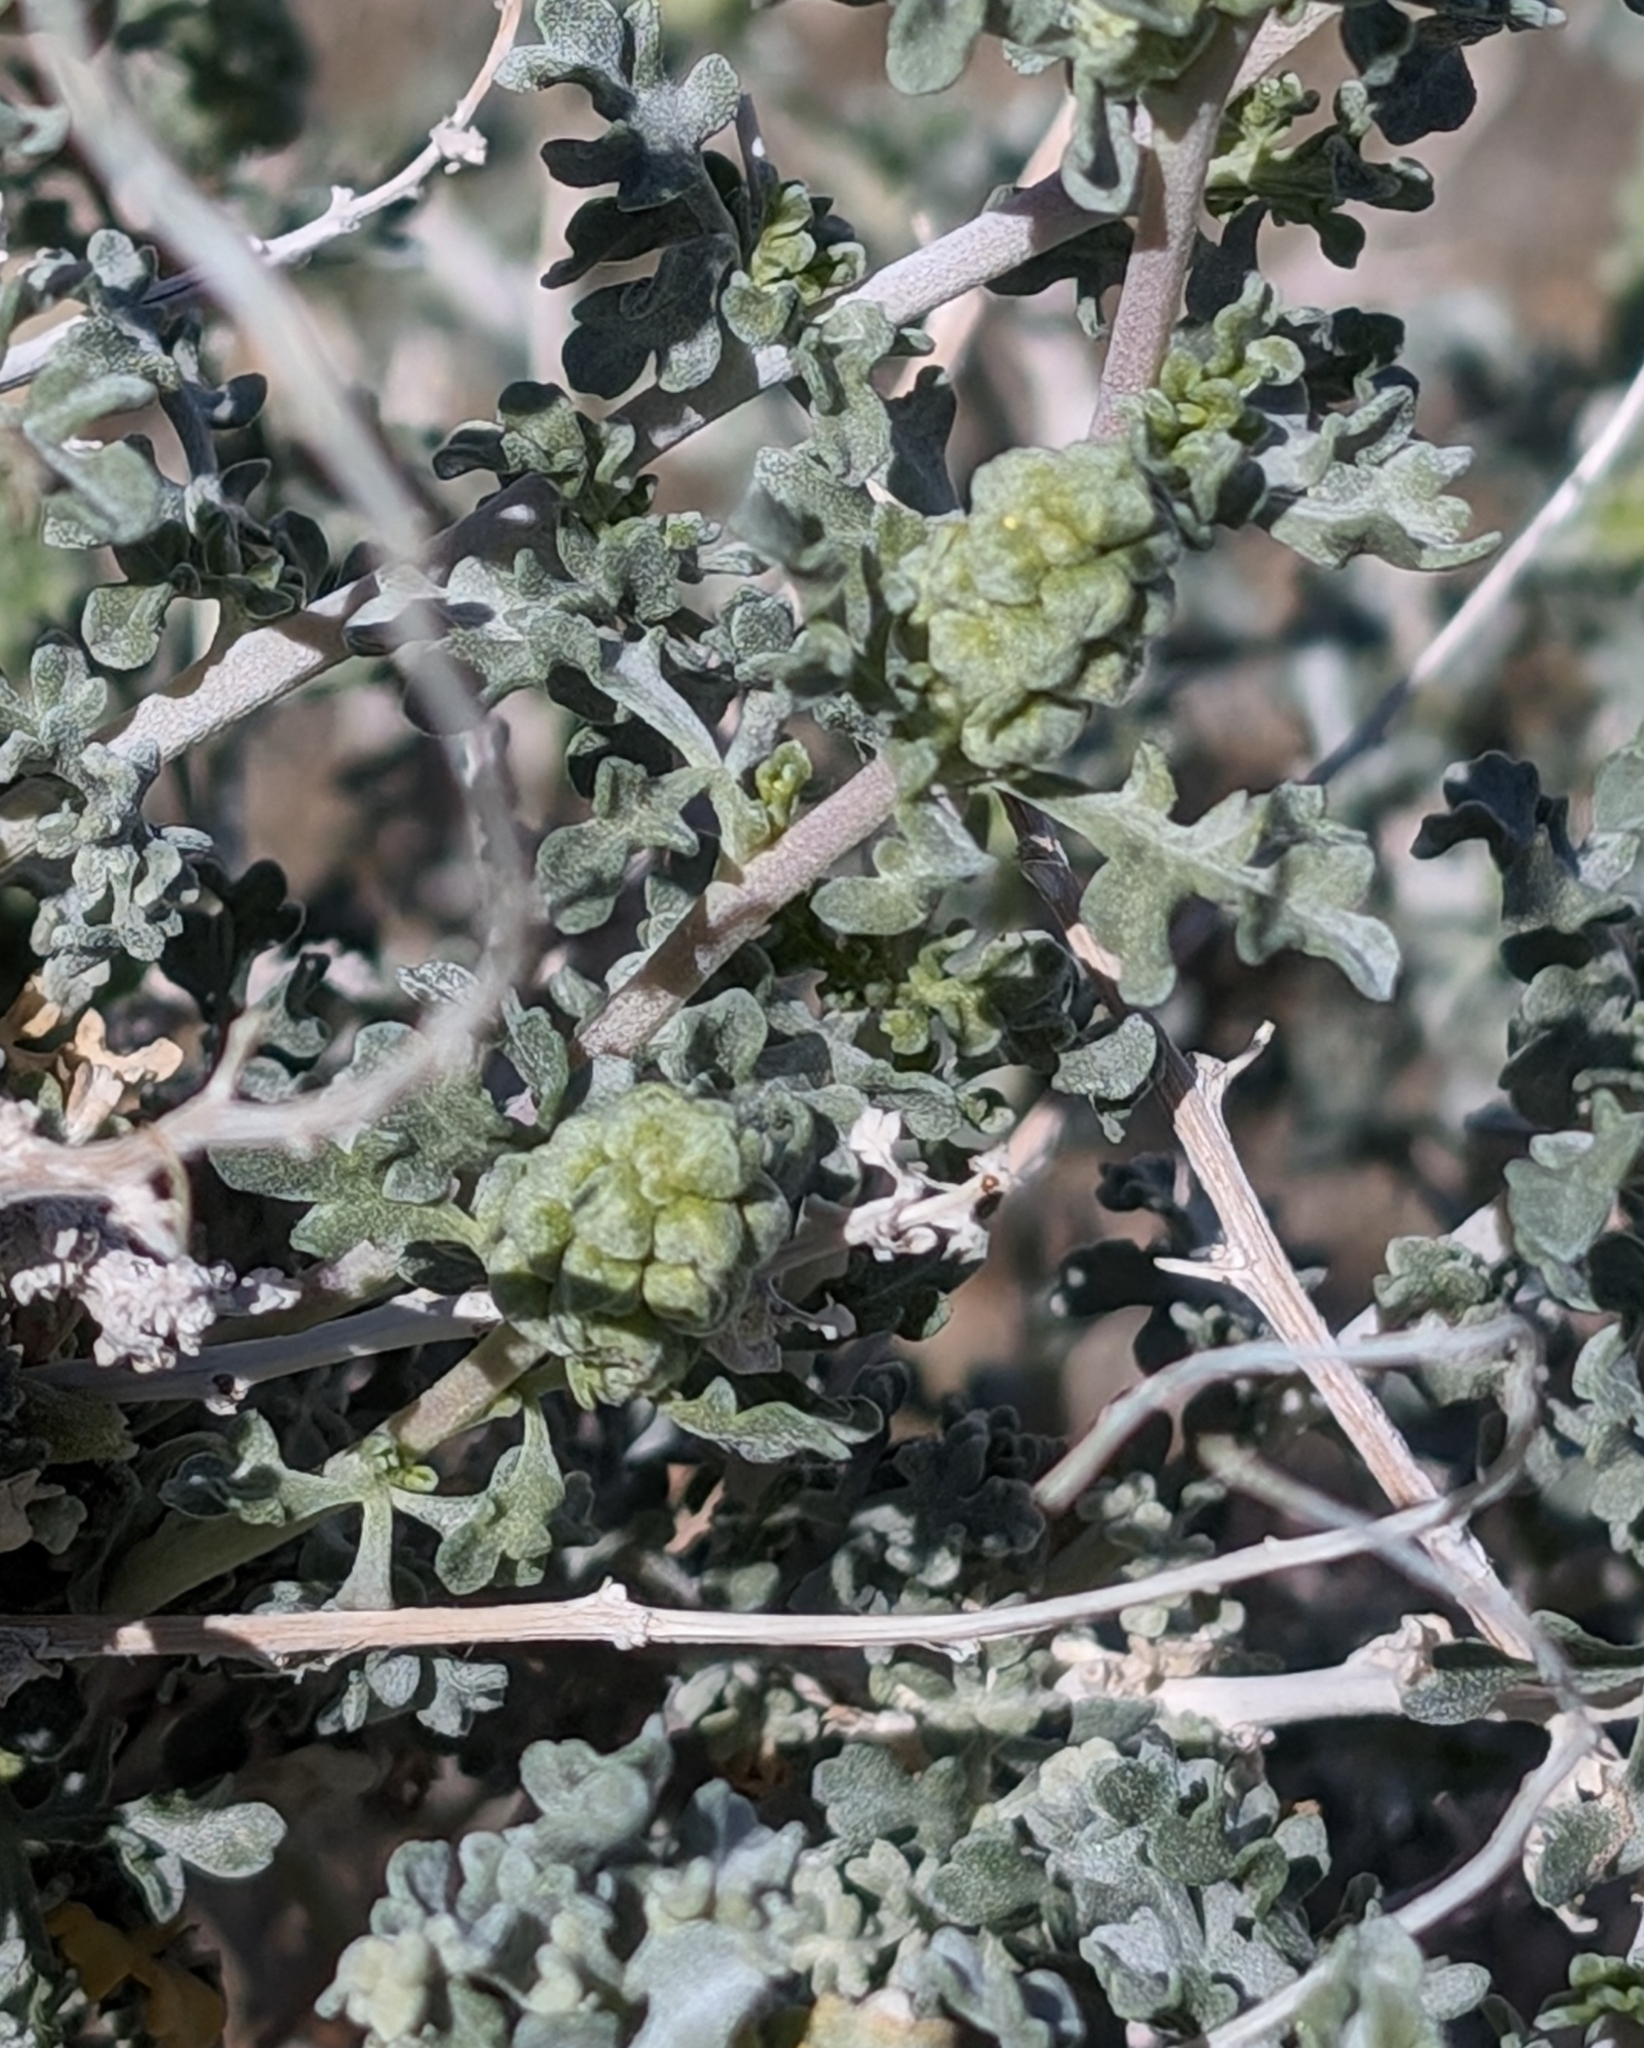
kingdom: Plantae
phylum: Tracheophyta
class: Magnoliopsida
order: Asterales
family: Asteraceae
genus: Ambrosia
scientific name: Ambrosia dumosa
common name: Bur-sage
